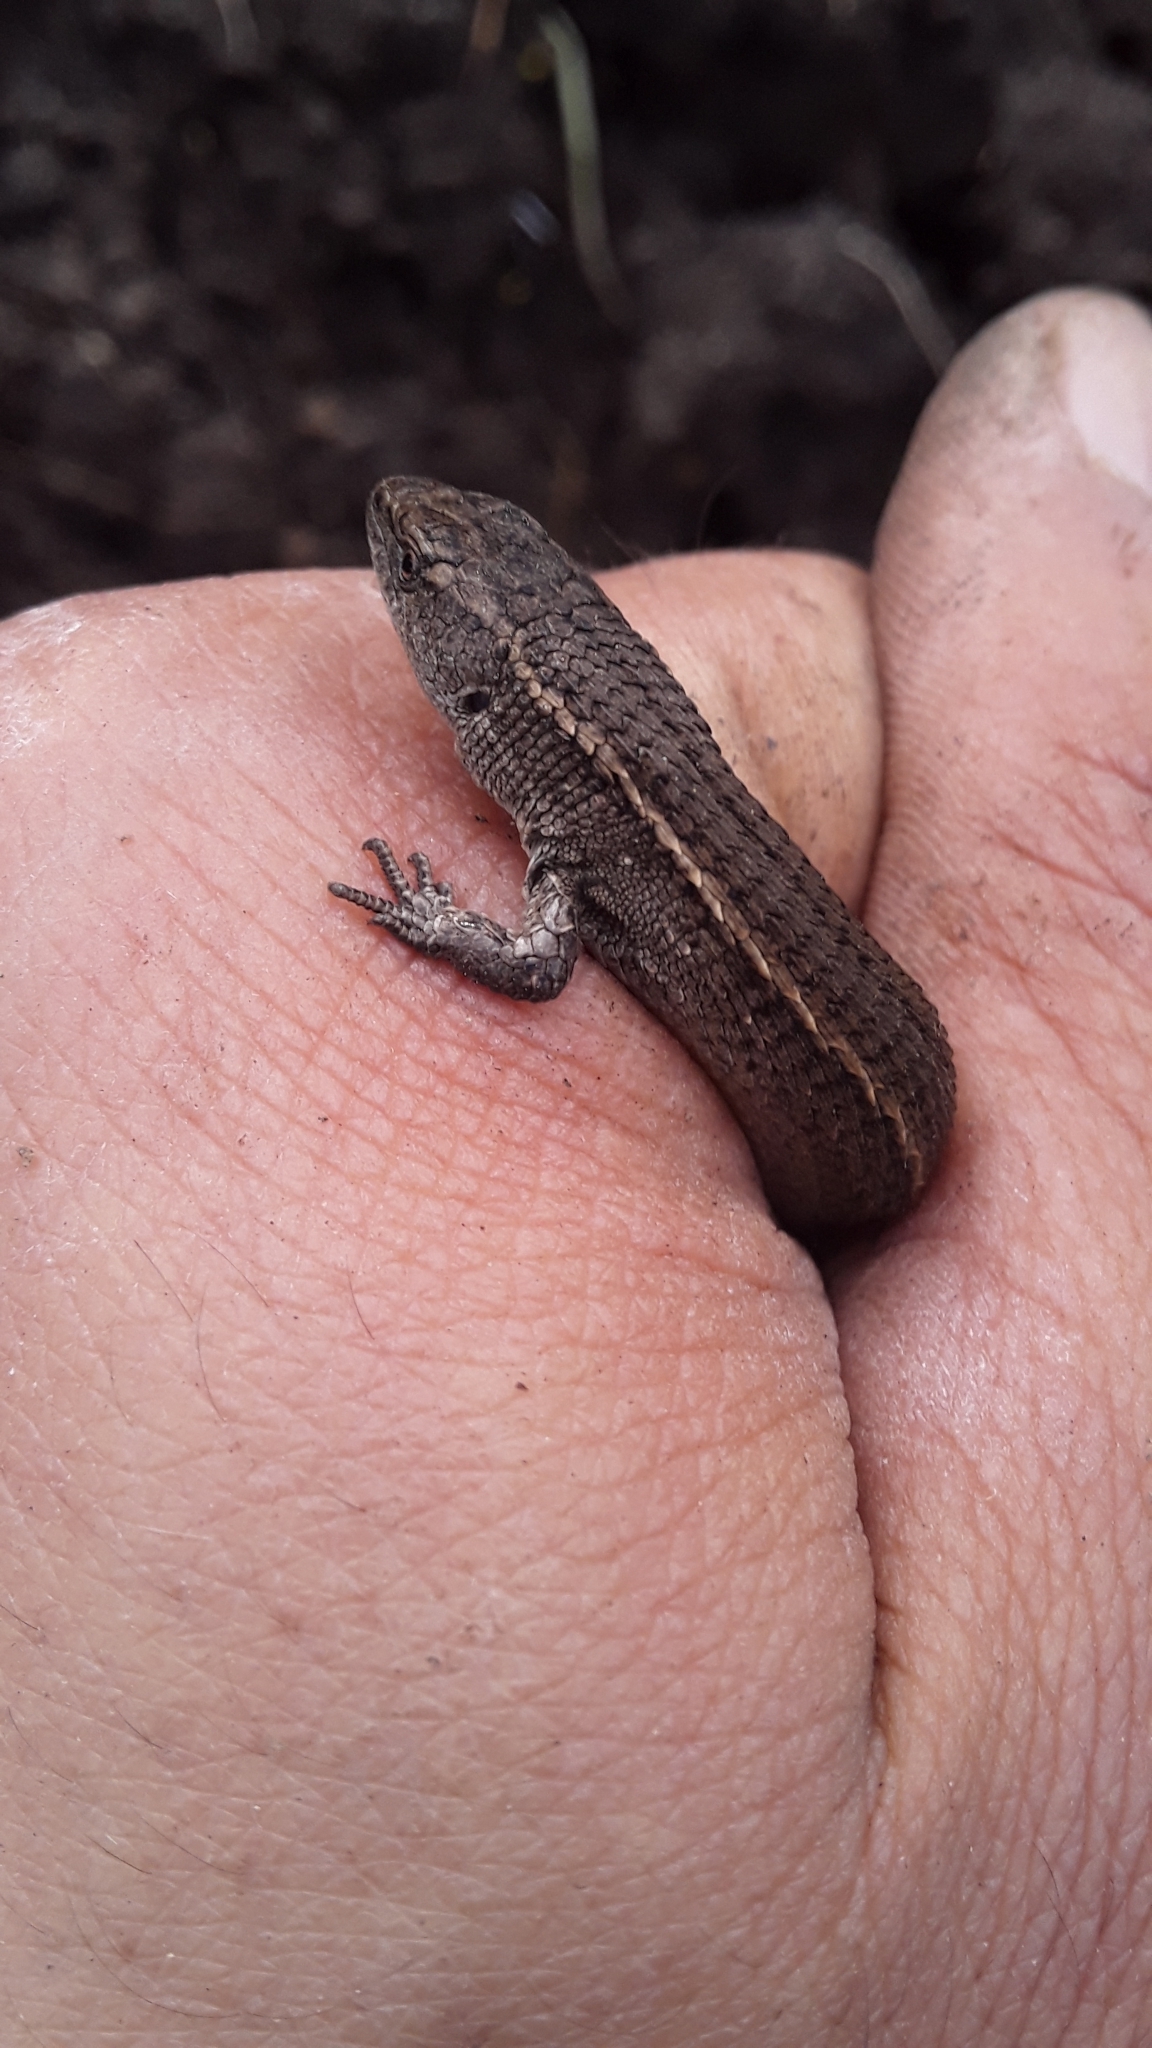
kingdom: Animalia
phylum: Chordata
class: Squamata
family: Gymnophthalmidae
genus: Cercosaura
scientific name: Cercosaura schreibersii
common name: Schreibers' many-fingered teiid
